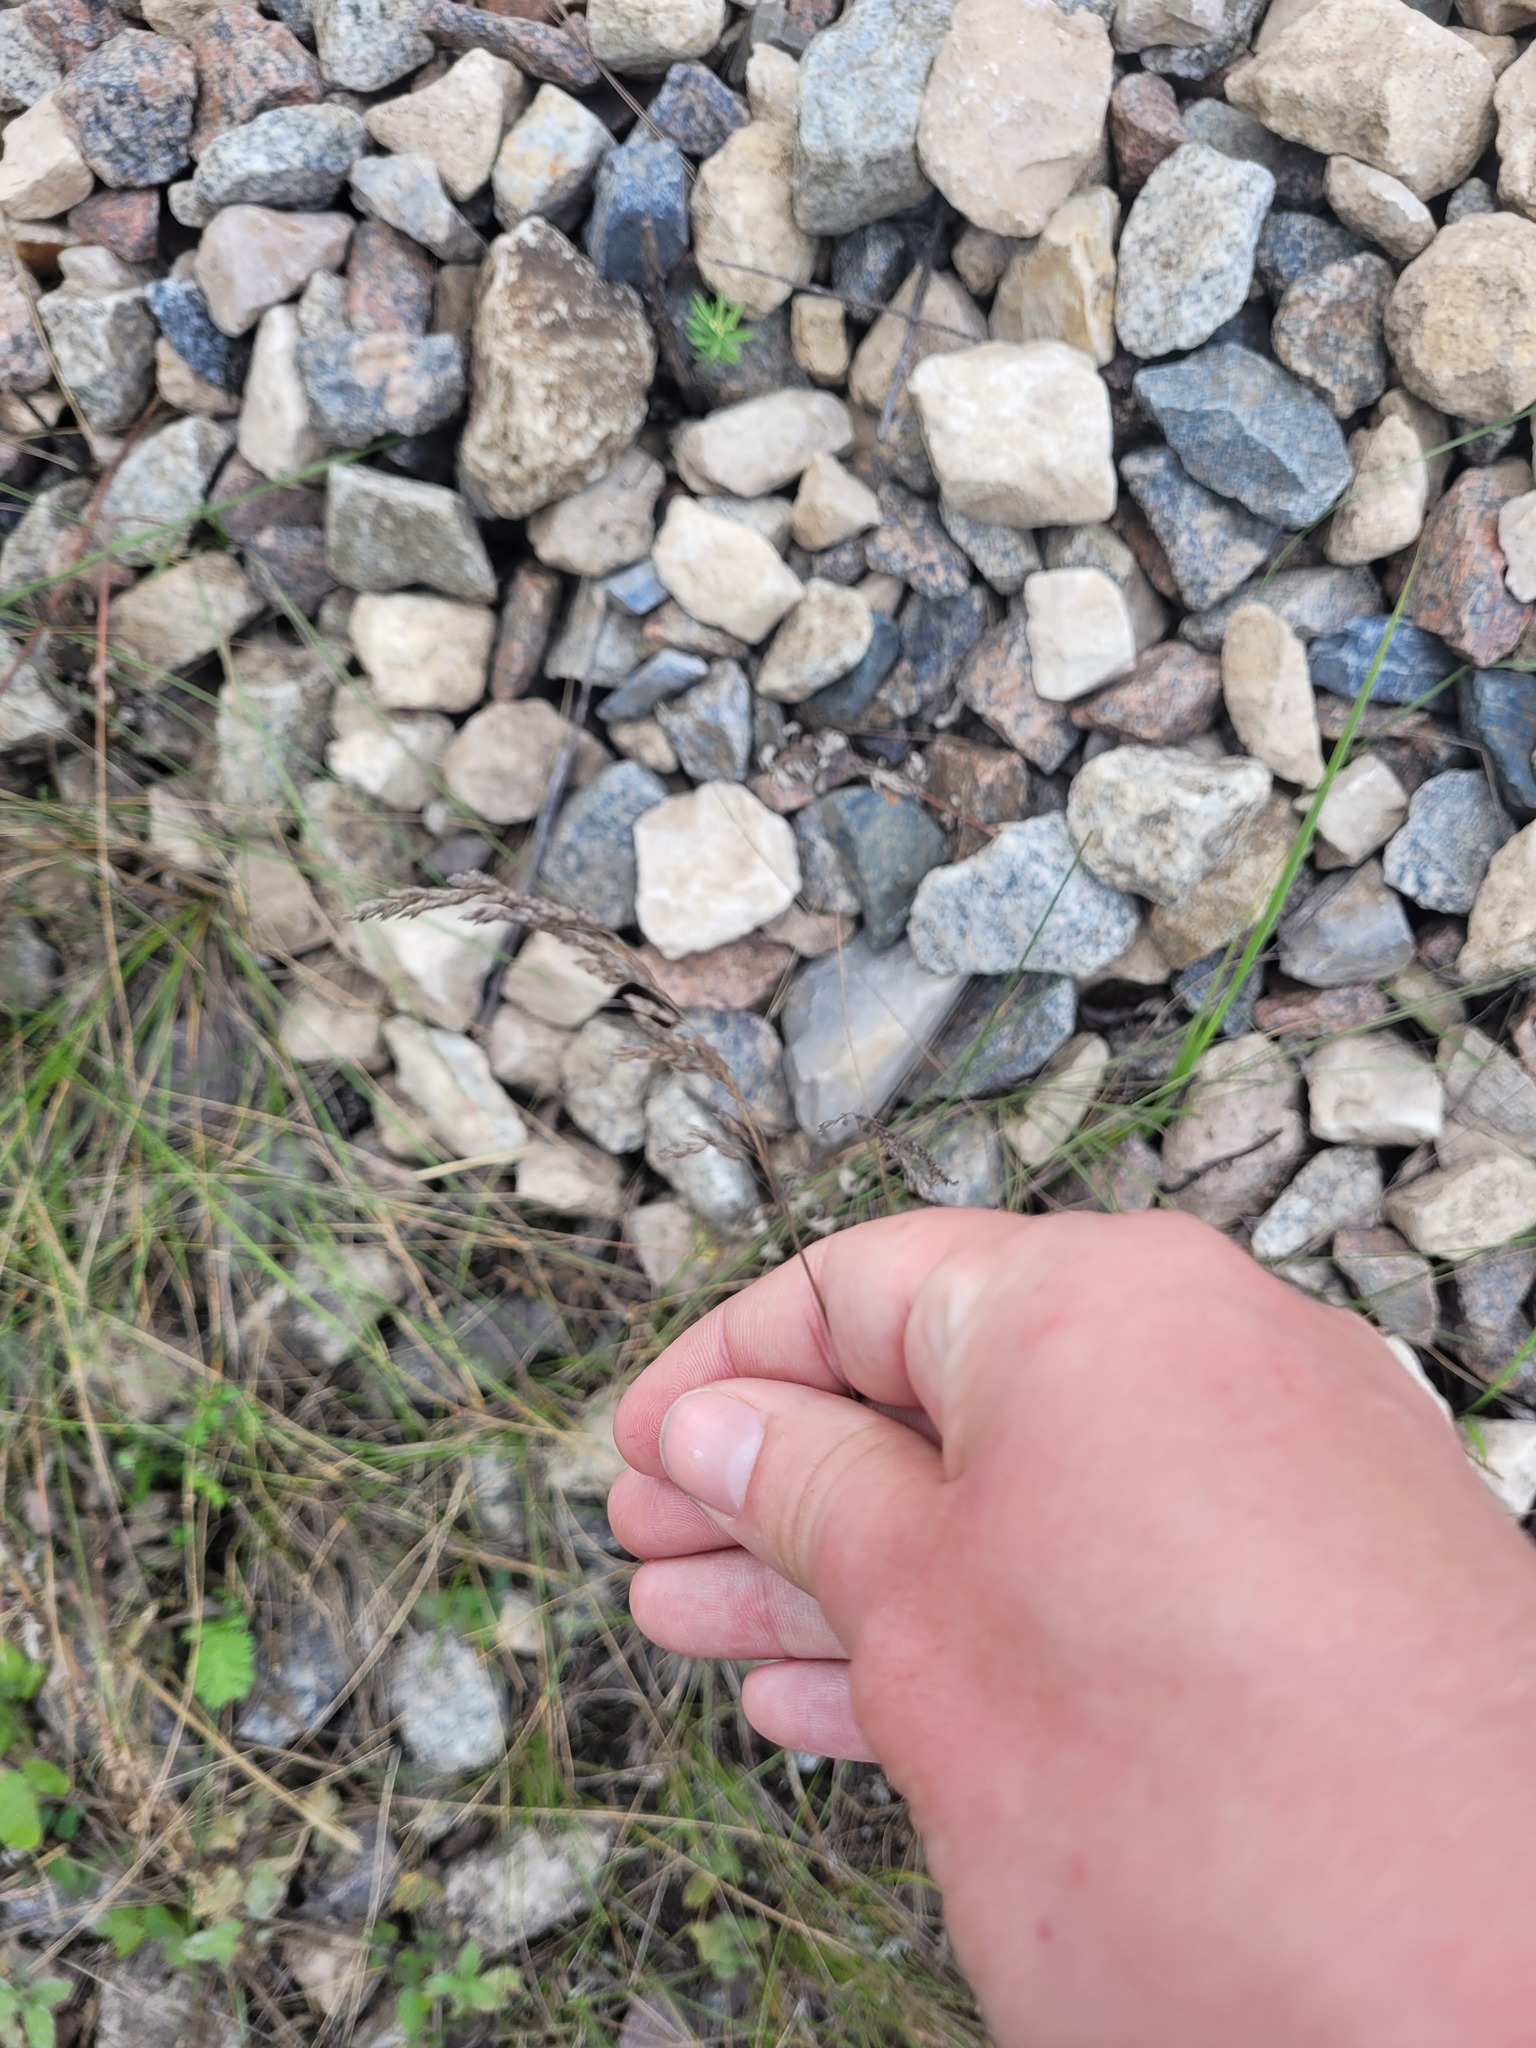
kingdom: Plantae
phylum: Tracheophyta
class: Liliopsida
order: Poales
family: Poaceae
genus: Poa
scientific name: Poa angustifolia
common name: Narrow-leaved meadow-grass
